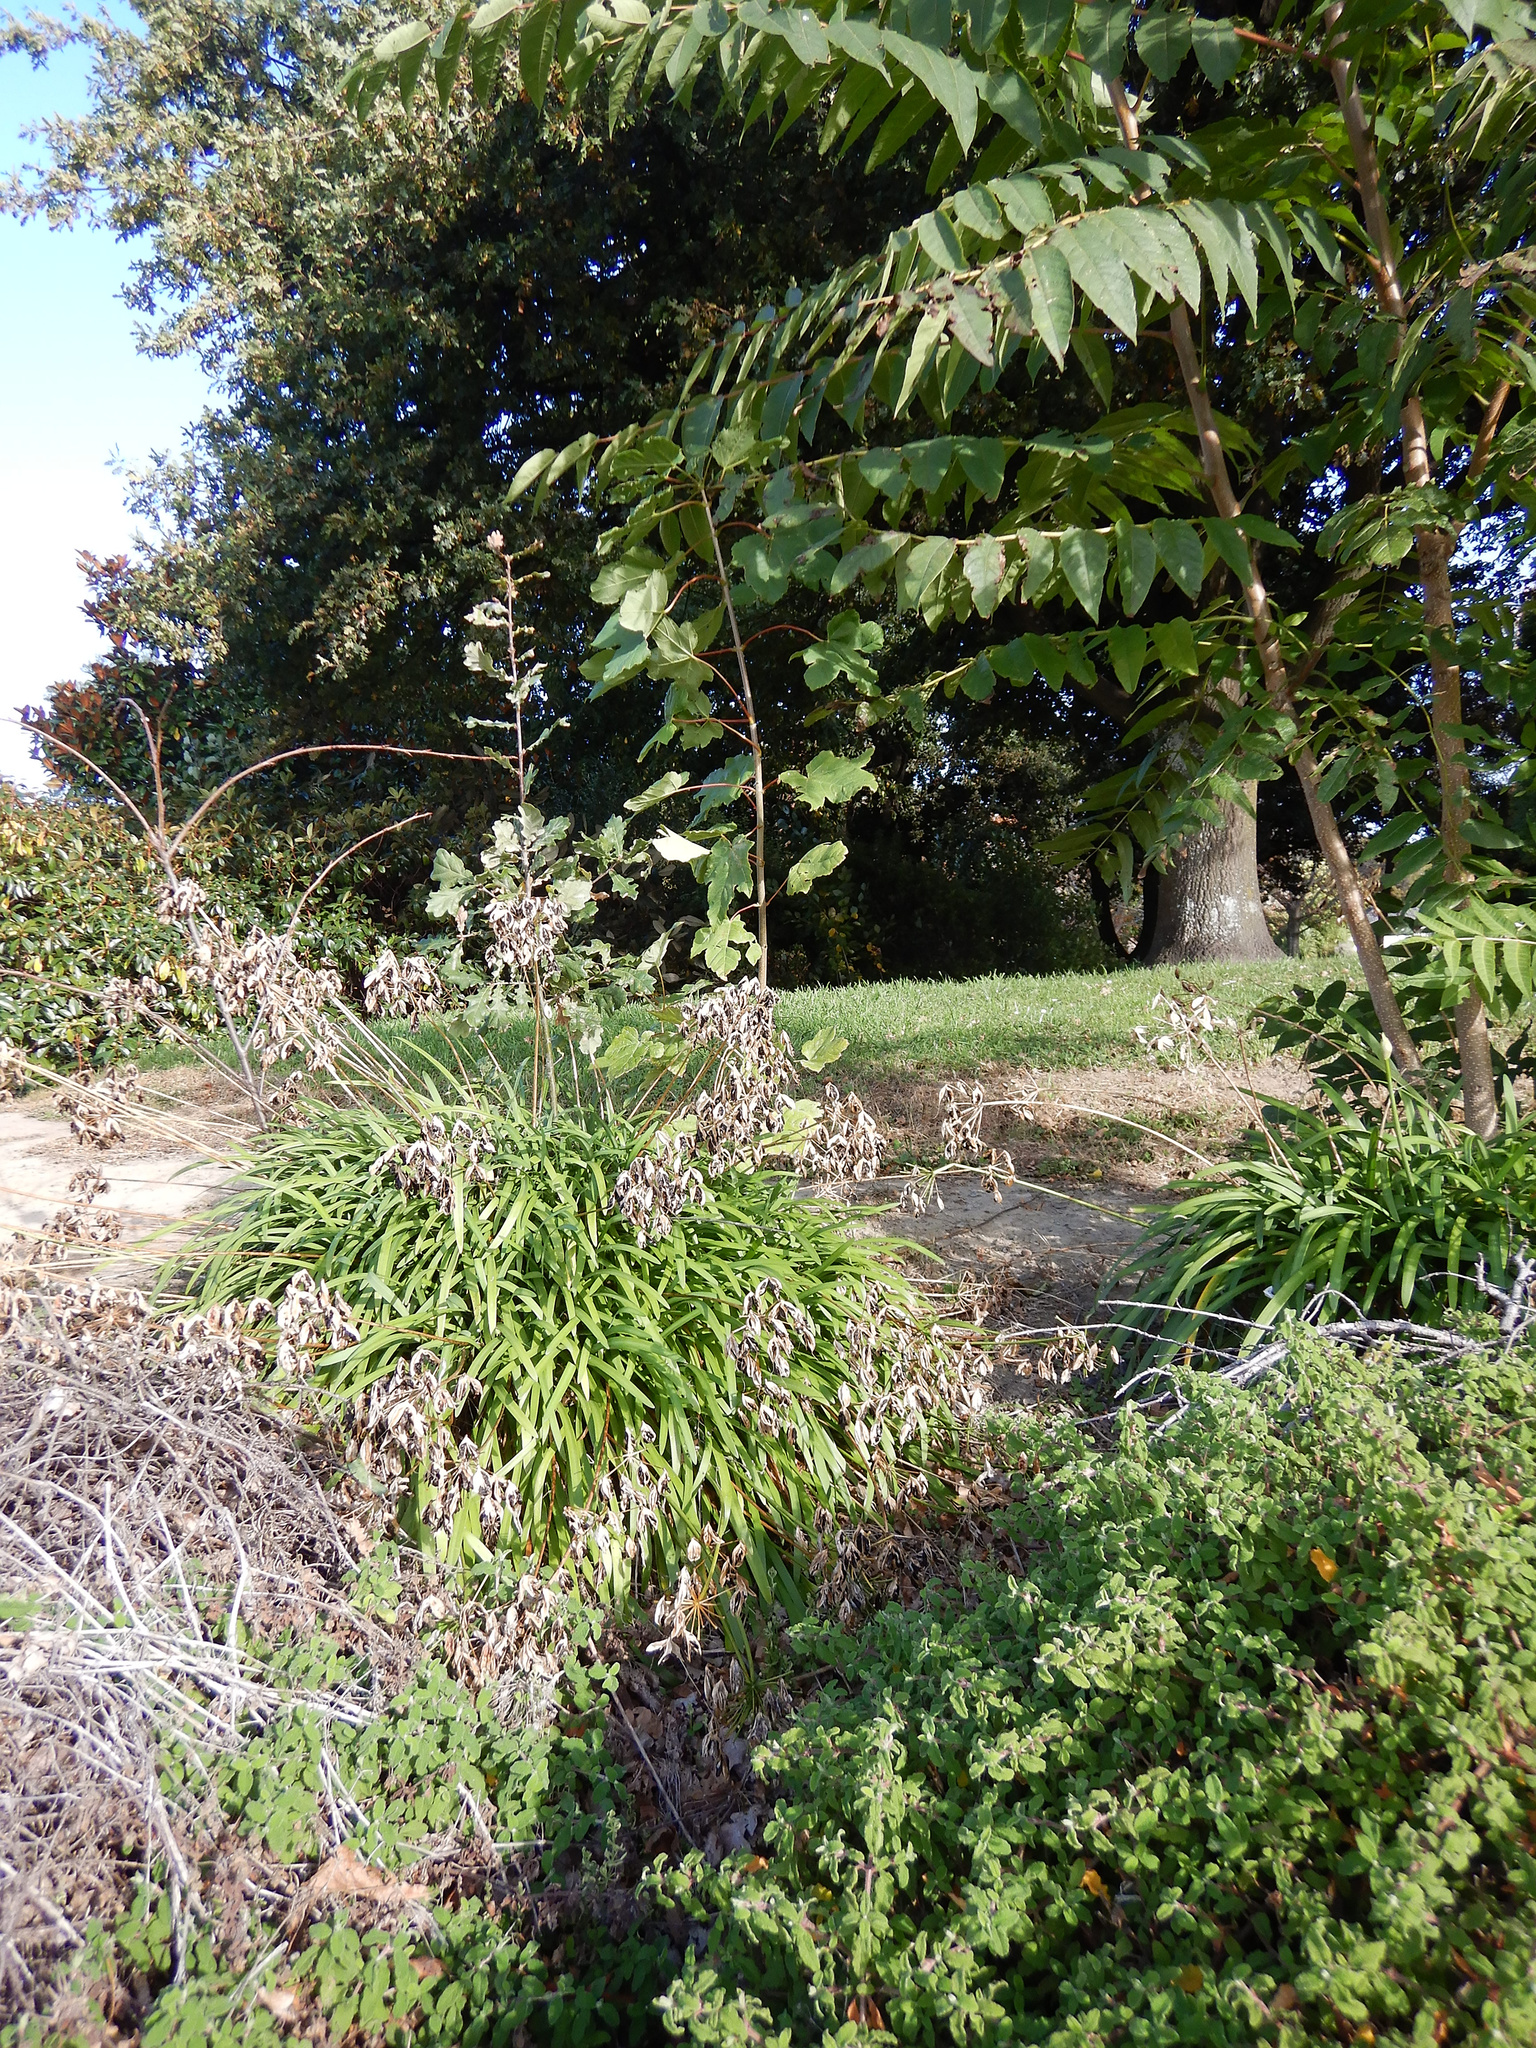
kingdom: Plantae
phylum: Tracheophyta
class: Magnoliopsida
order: Sapindales
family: Sapindaceae
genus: Acer
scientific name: Acer pseudoplatanus
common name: Sycamore
